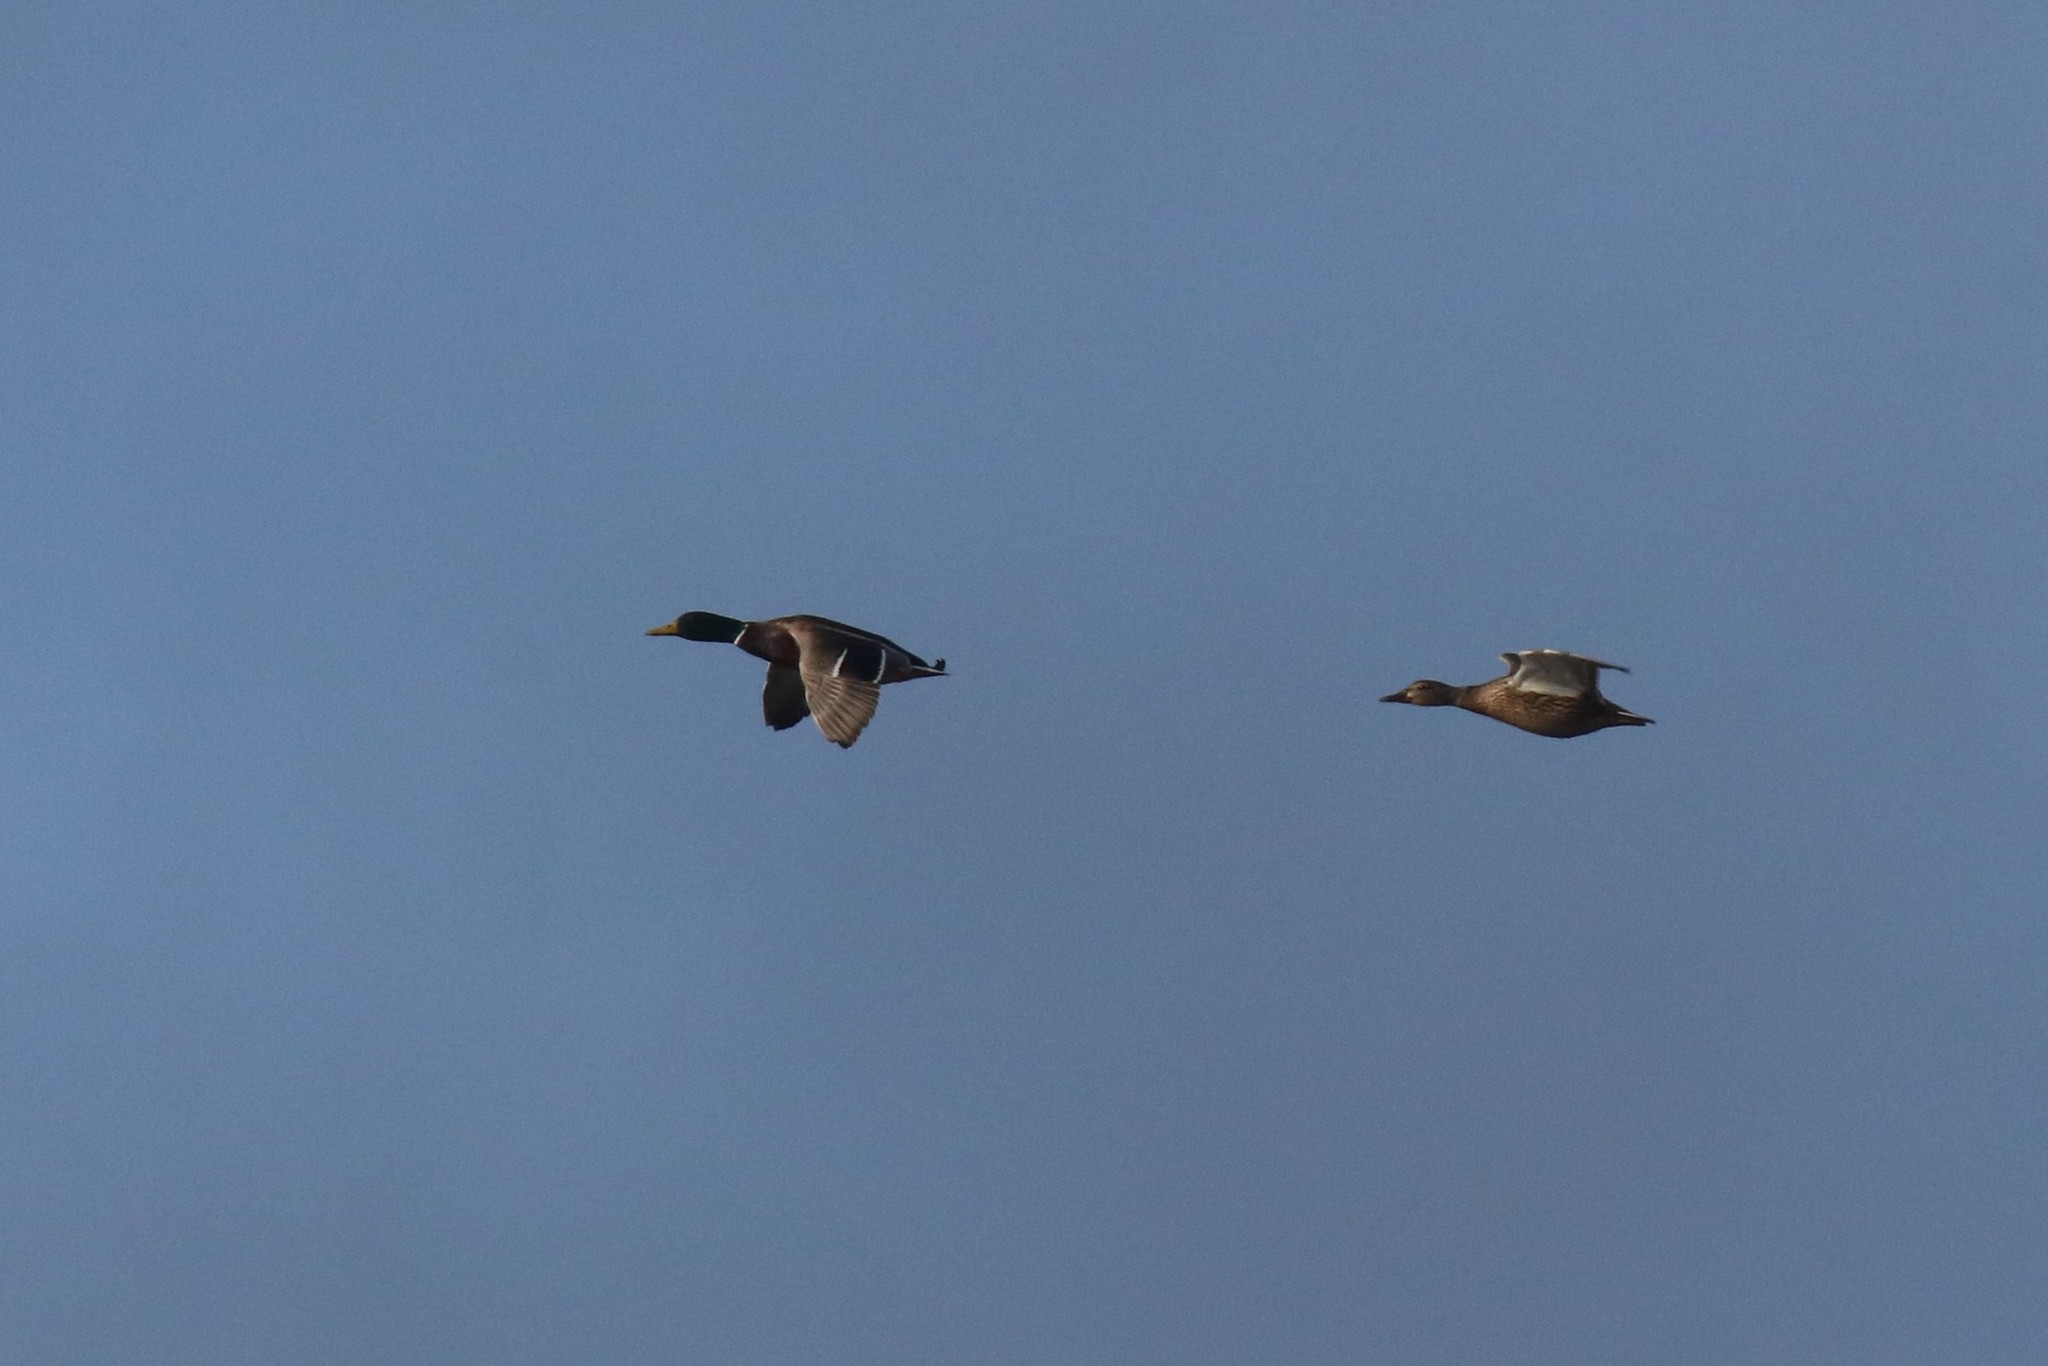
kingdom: Animalia
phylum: Chordata
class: Aves
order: Anseriformes
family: Anatidae
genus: Anas
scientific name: Anas platyrhynchos
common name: Mallard
